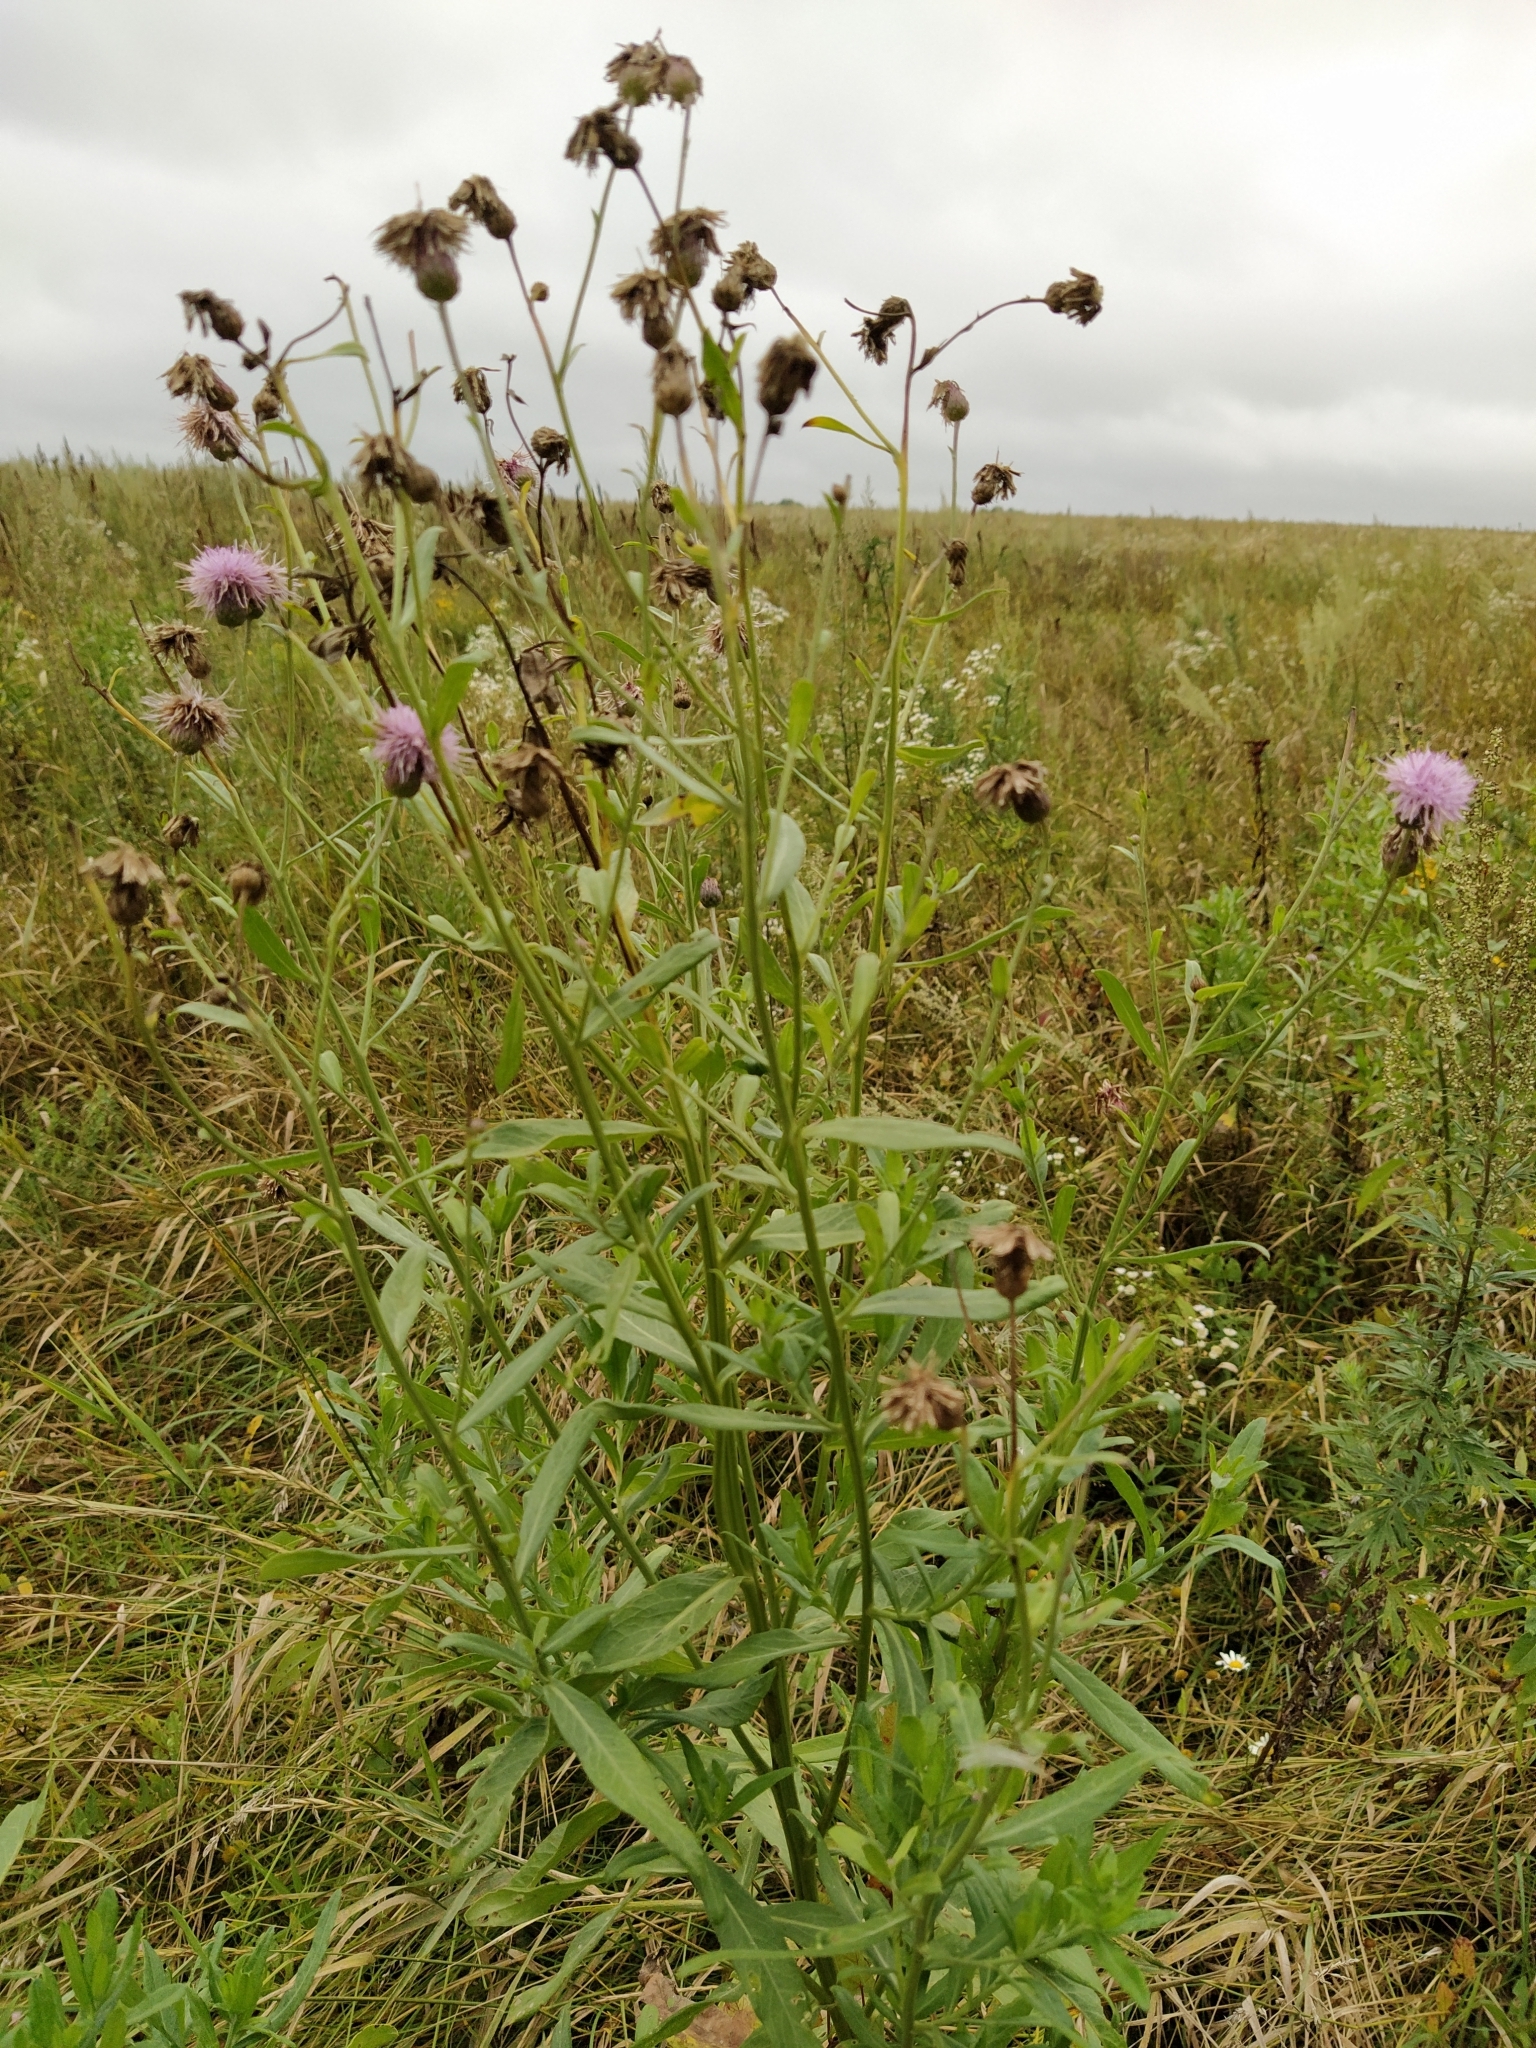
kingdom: Plantae
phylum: Tracheophyta
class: Magnoliopsida
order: Asterales
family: Asteraceae
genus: Cirsium
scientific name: Cirsium arvense
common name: Creeping thistle
